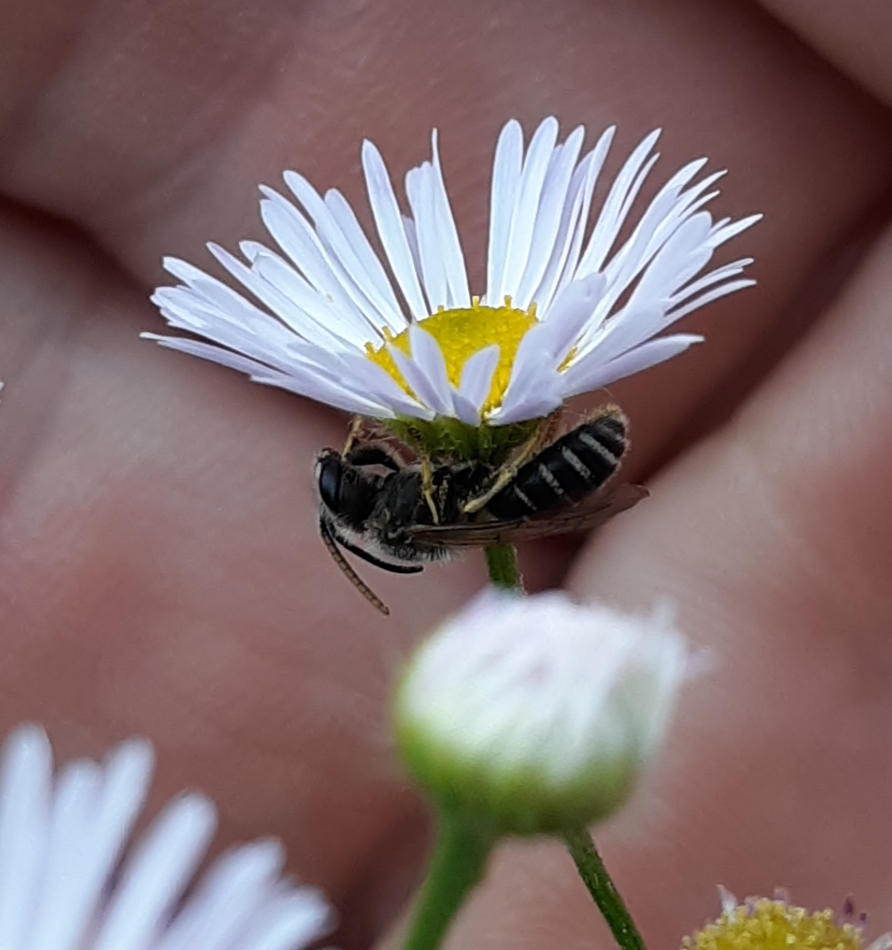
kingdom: Animalia
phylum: Arthropoda
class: Insecta
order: Hymenoptera
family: Halictidae
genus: Halictus
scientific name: Halictus ligatus
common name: Ligated furrow bee
